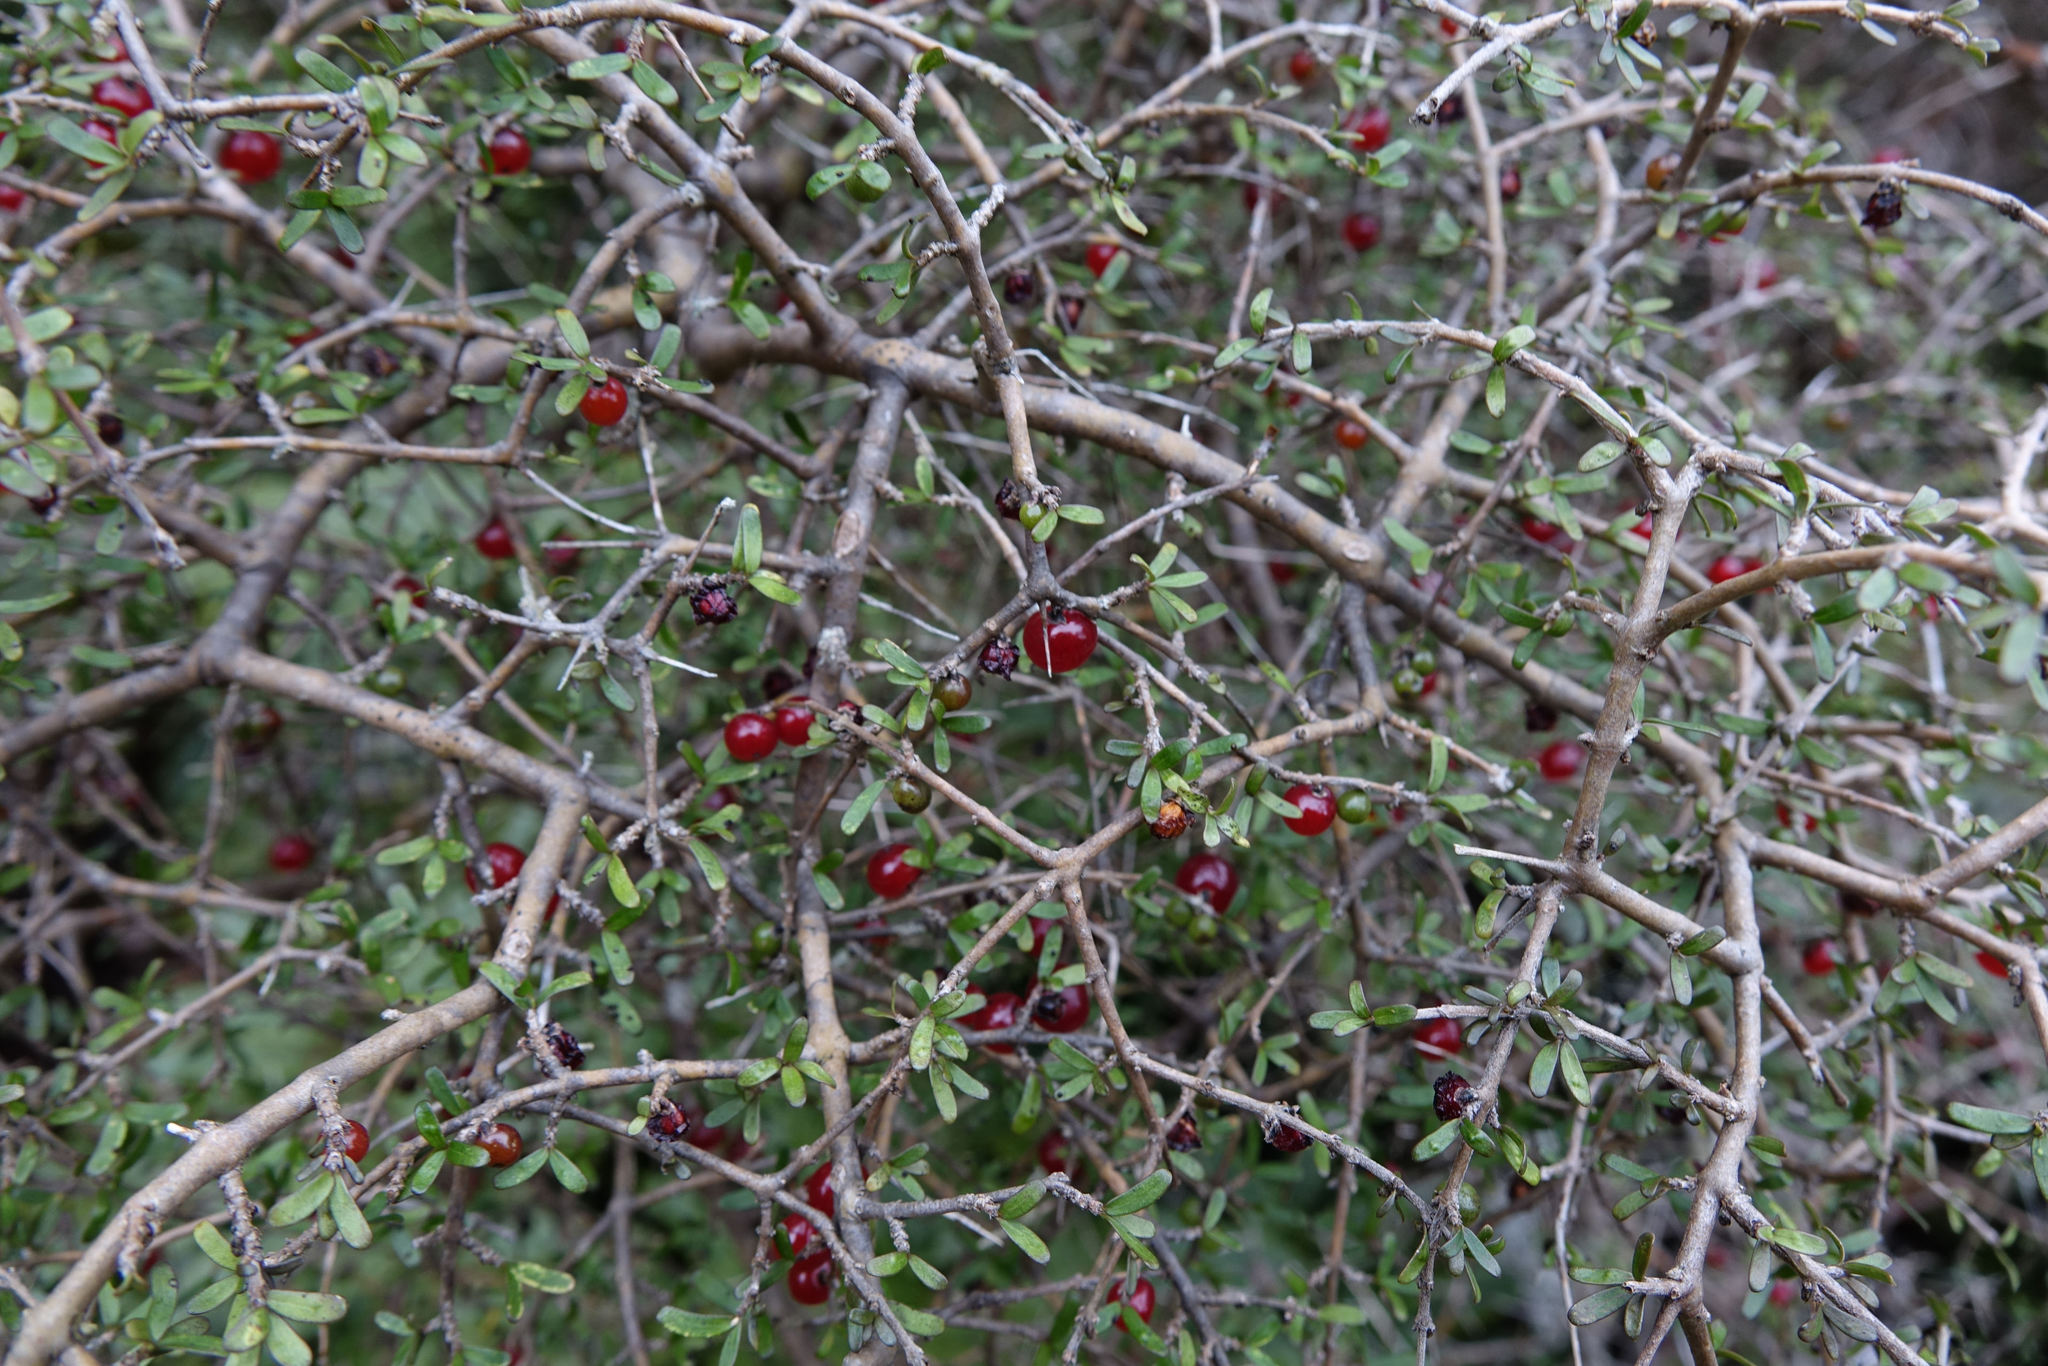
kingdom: Plantae
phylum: Tracheophyta
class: Magnoliopsida
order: Gentianales
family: Rubiaceae
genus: Coprosma
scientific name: Coprosma decurva
